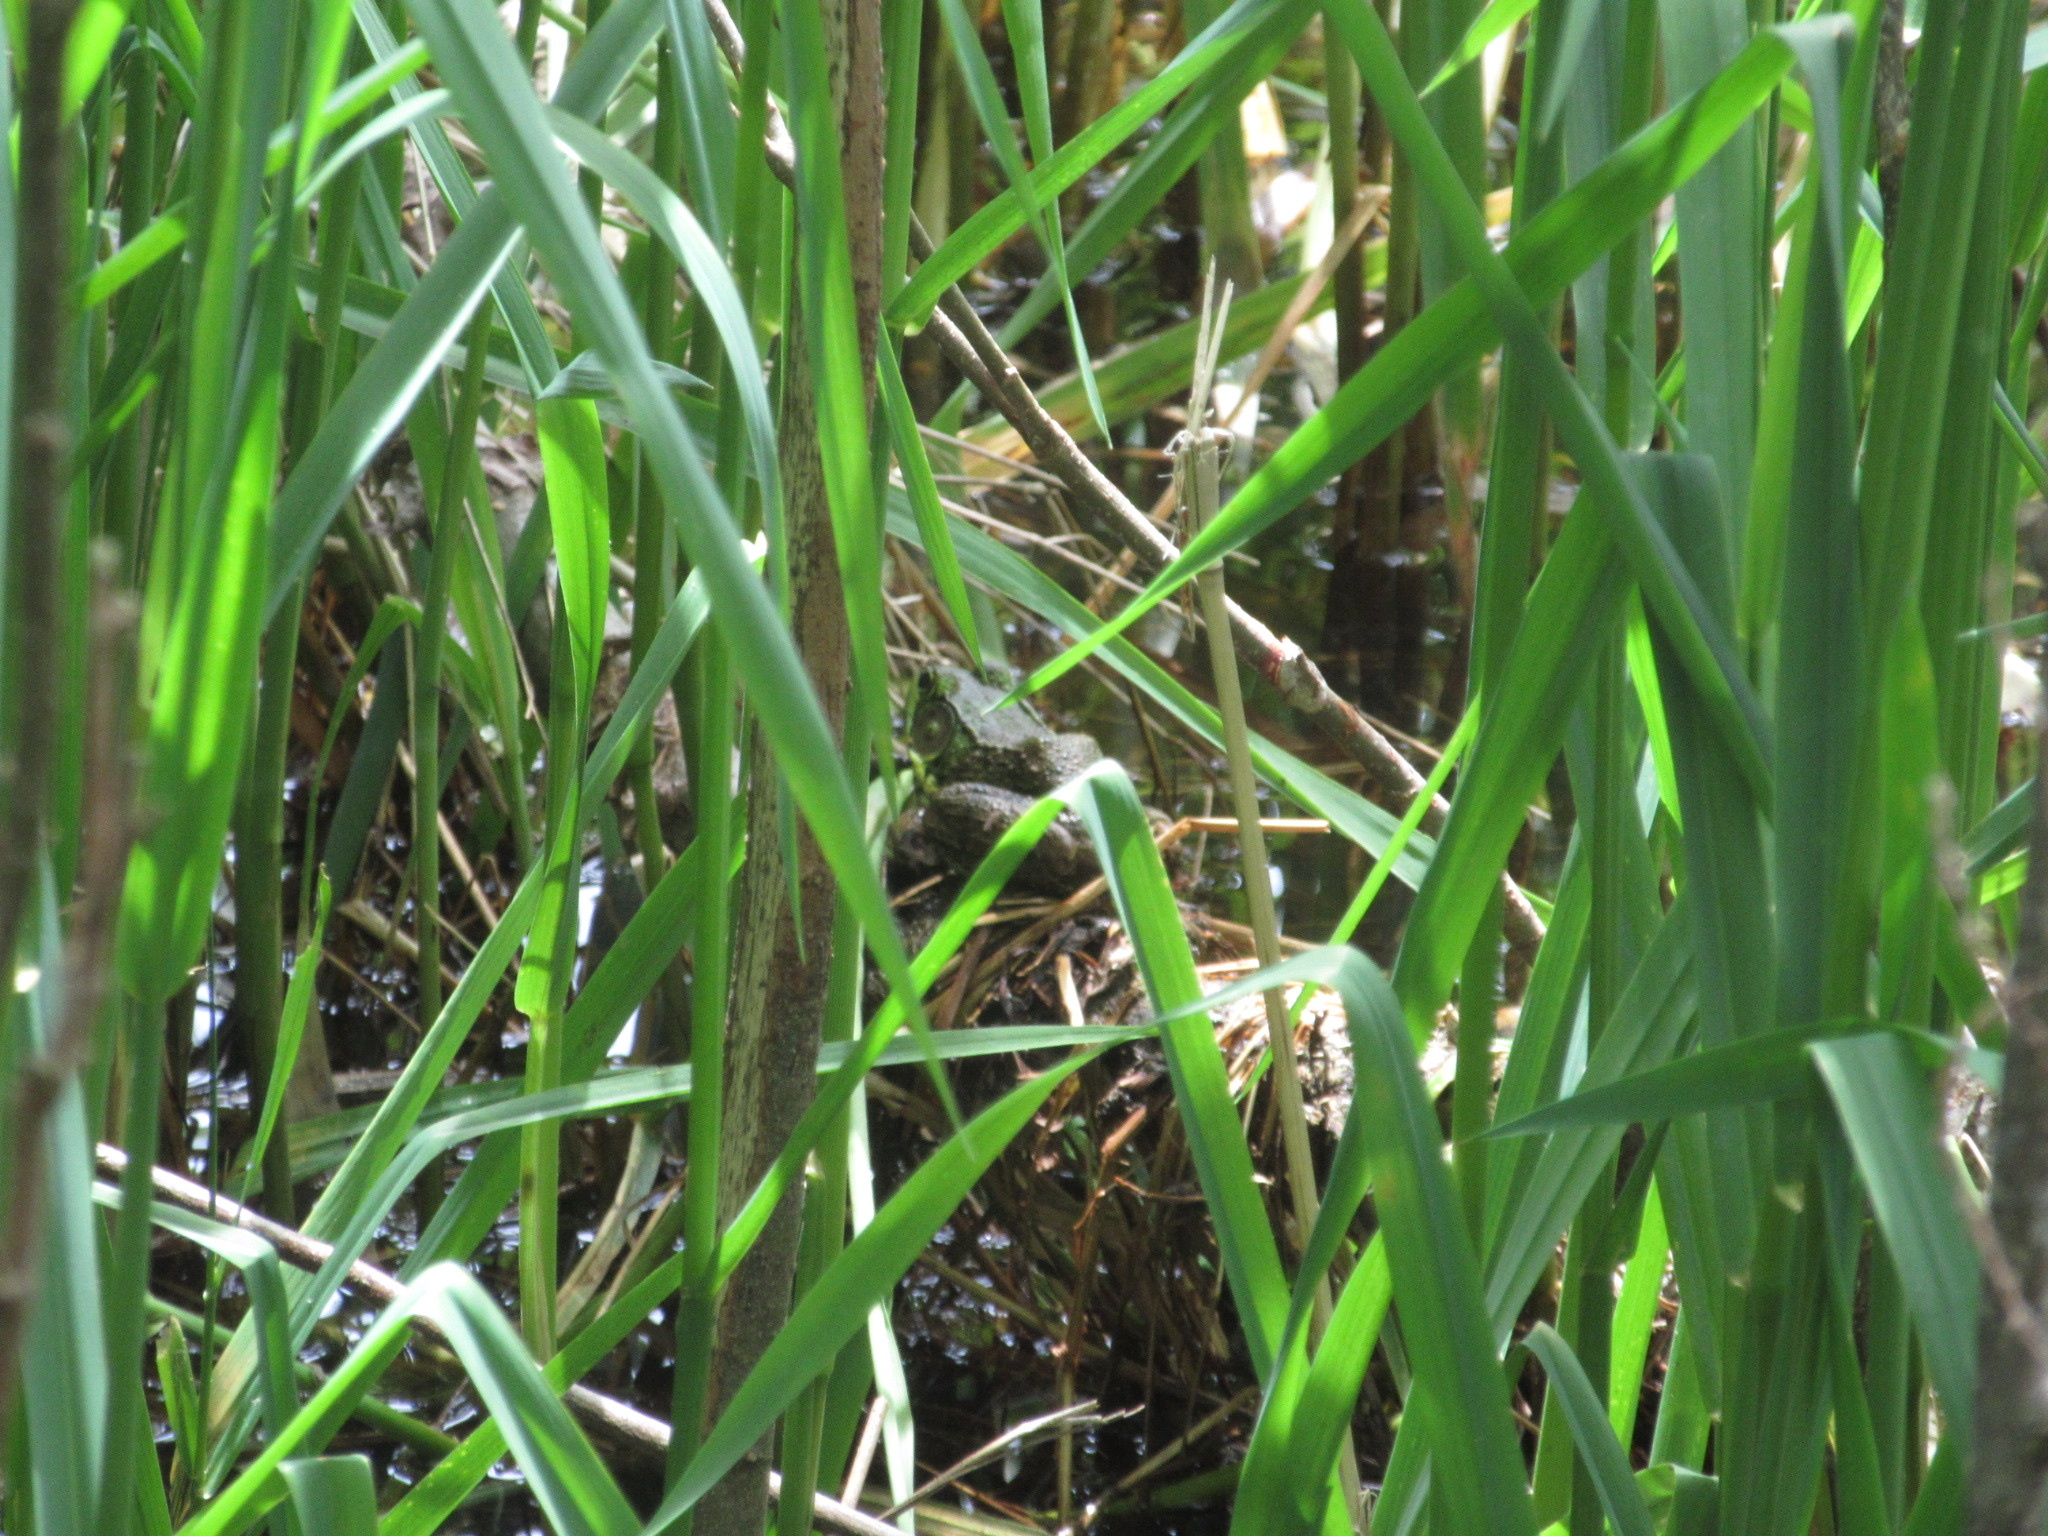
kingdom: Animalia
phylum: Chordata
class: Amphibia
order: Anura
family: Ranidae
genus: Lithobates
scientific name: Lithobates clamitans
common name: Green frog
